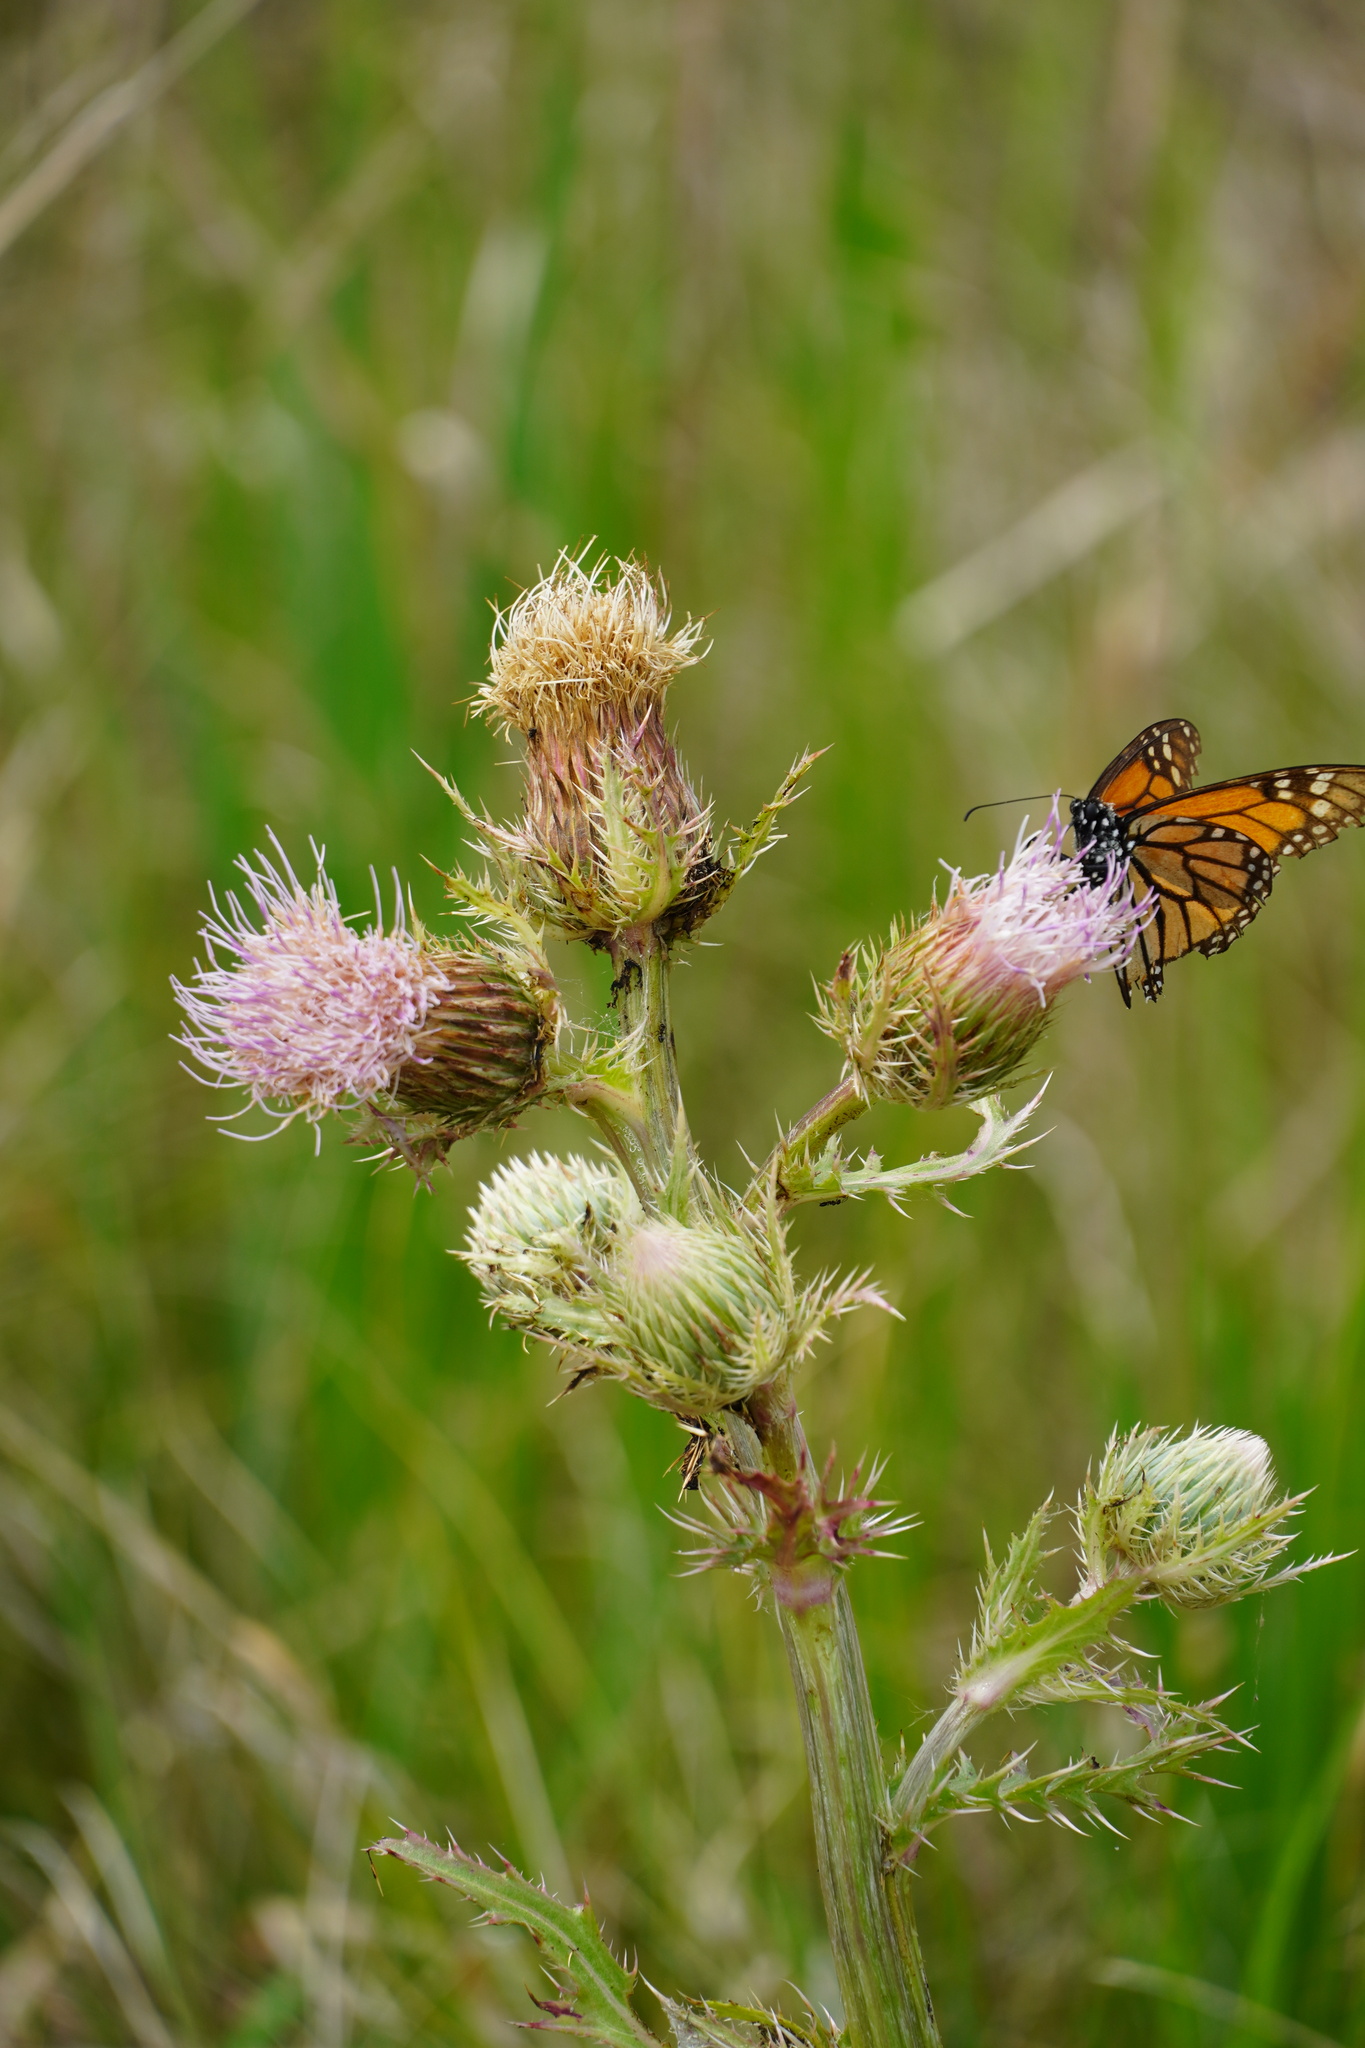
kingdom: Animalia
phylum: Arthropoda
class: Insecta
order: Lepidoptera
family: Nymphalidae
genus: Danaus
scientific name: Danaus plexippus
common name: Monarch
